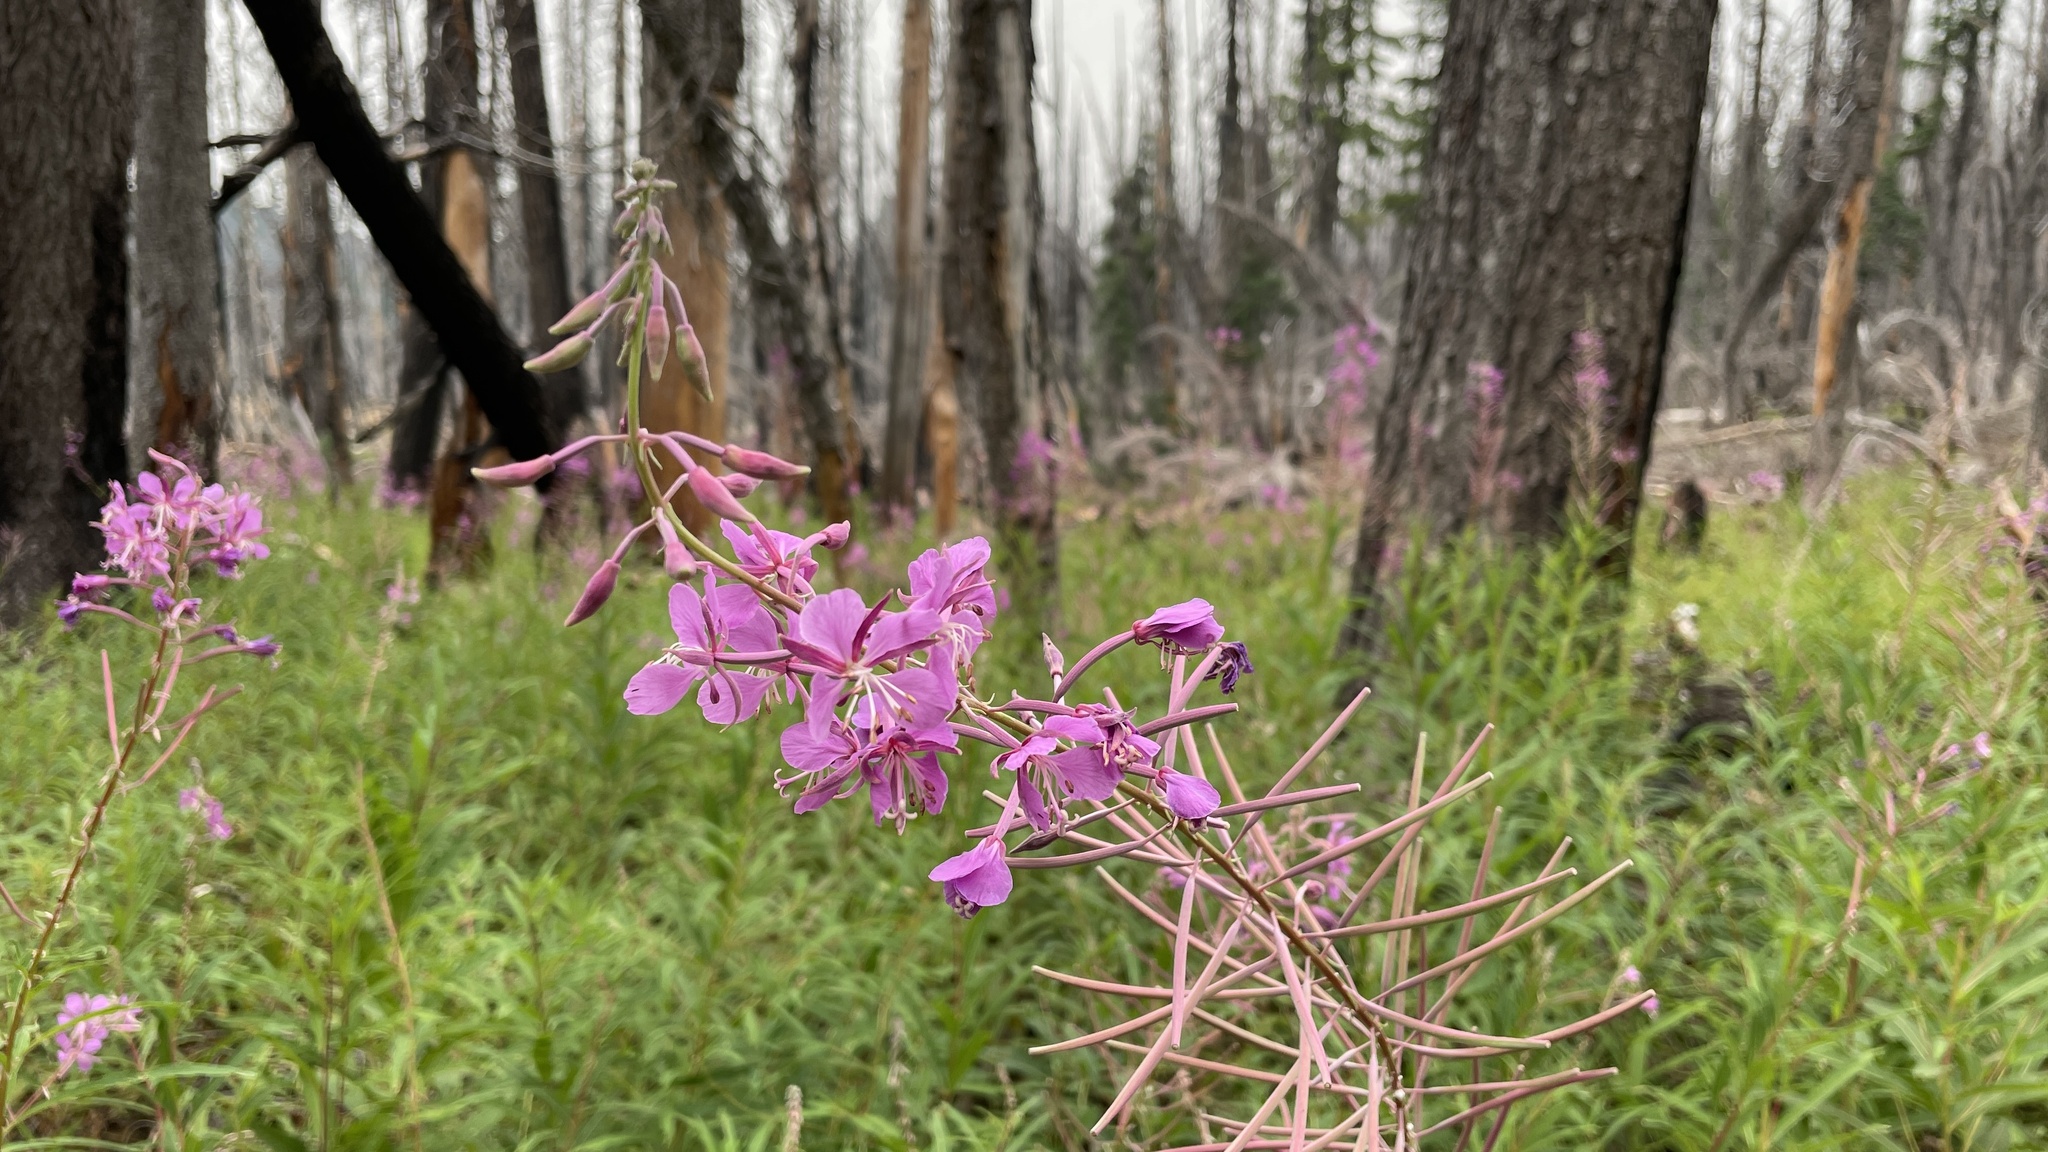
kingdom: Plantae
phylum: Tracheophyta
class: Magnoliopsida
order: Myrtales
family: Onagraceae
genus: Chamaenerion
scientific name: Chamaenerion angustifolium
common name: Fireweed
